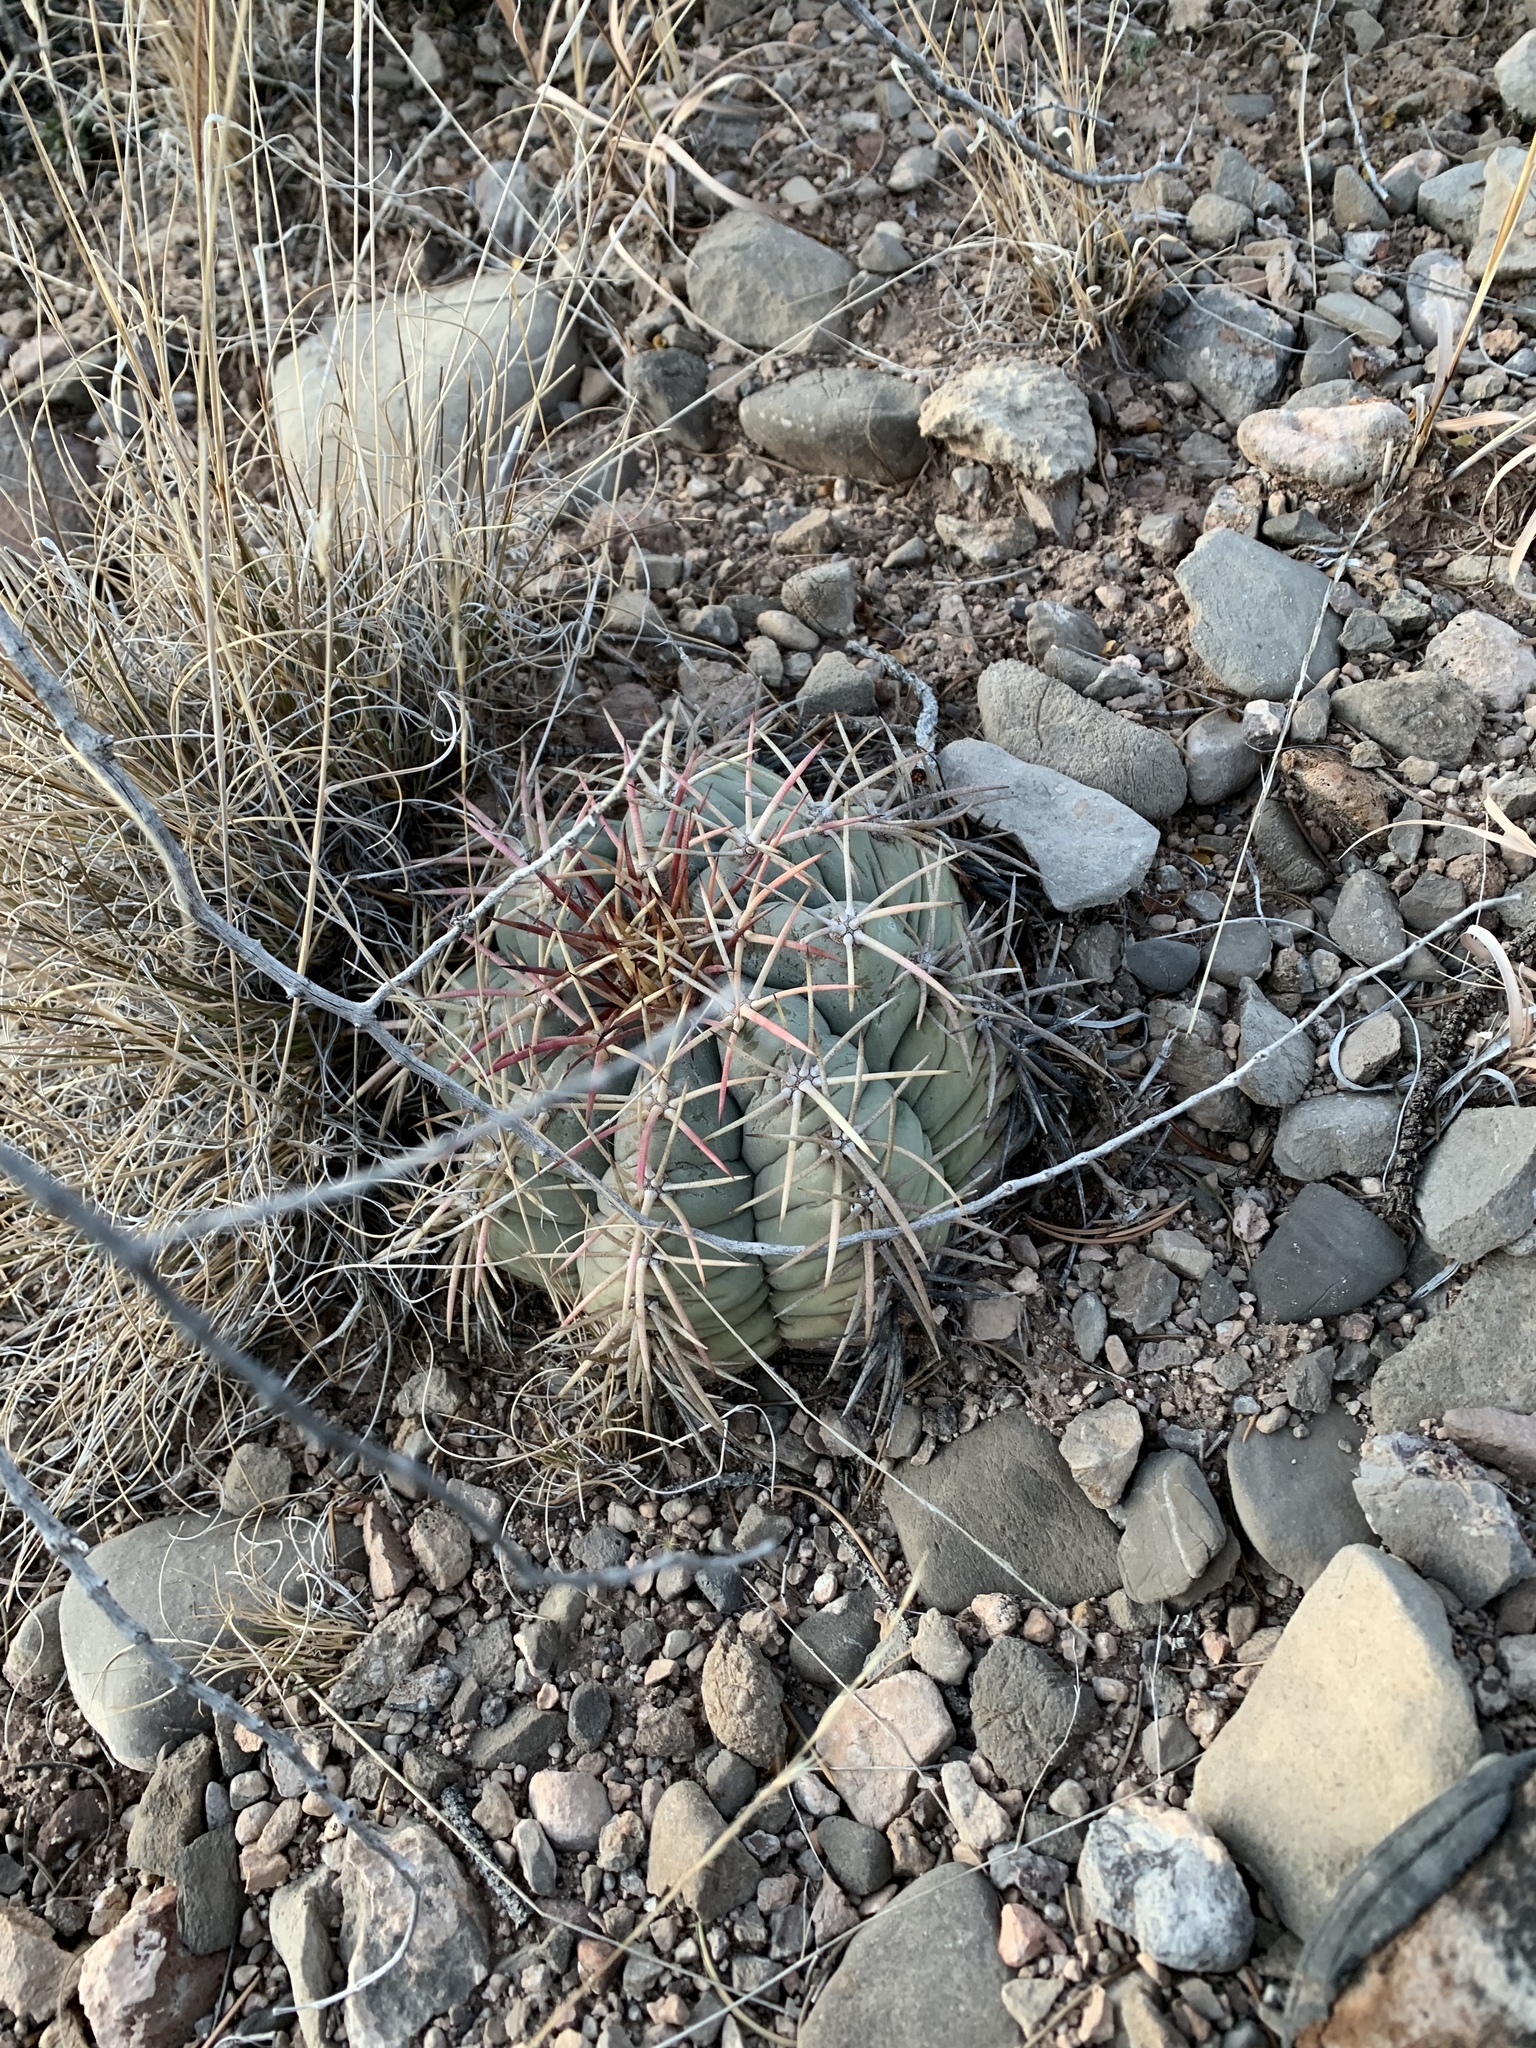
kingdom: Plantae
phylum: Tracheophyta
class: Magnoliopsida
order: Caryophyllales
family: Cactaceae
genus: Echinocactus
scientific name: Echinocactus horizonthalonius
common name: Devilshead
